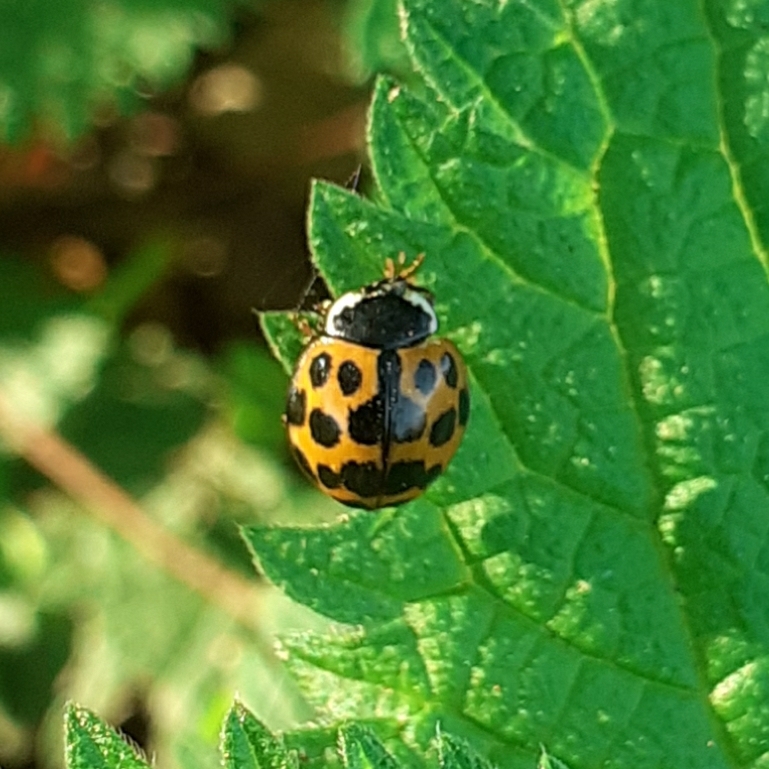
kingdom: Animalia
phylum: Arthropoda
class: Insecta
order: Coleoptera
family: Coccinellidae
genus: Harmonia
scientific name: Harmonia axyridis
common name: Harlequin ladybird
